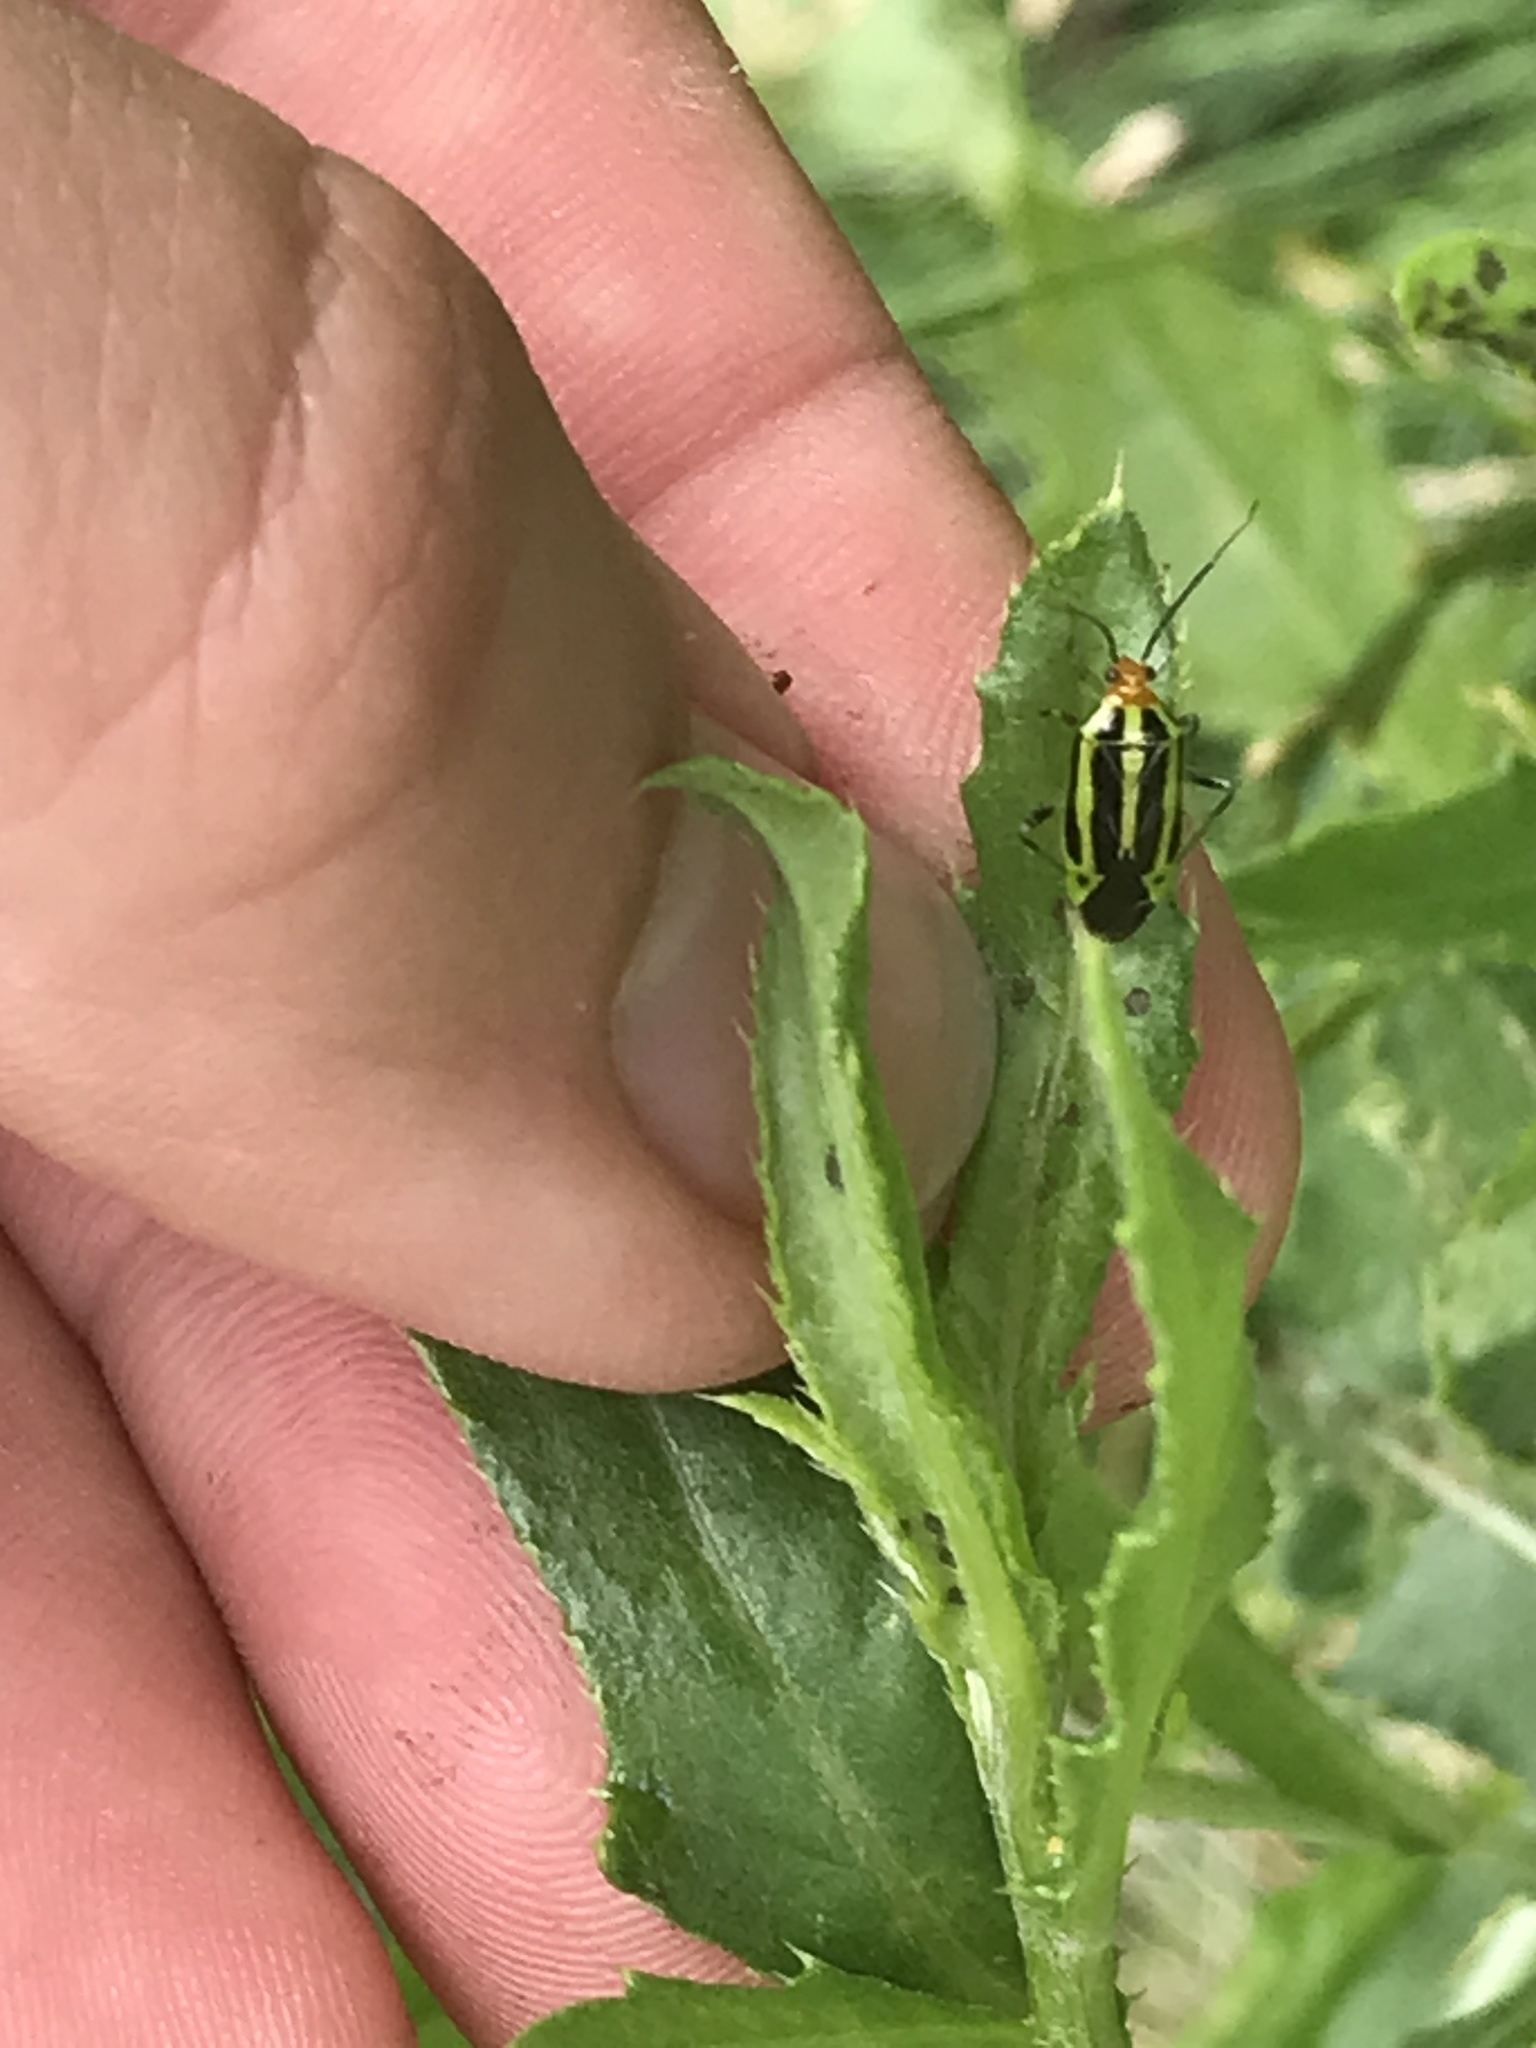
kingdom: Animalia
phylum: Arthropoda
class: Insecta
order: Hemiptera
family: Miridae
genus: Poecilocapsus
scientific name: Poecilocapsus lineatus
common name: Four-lined plant bug
